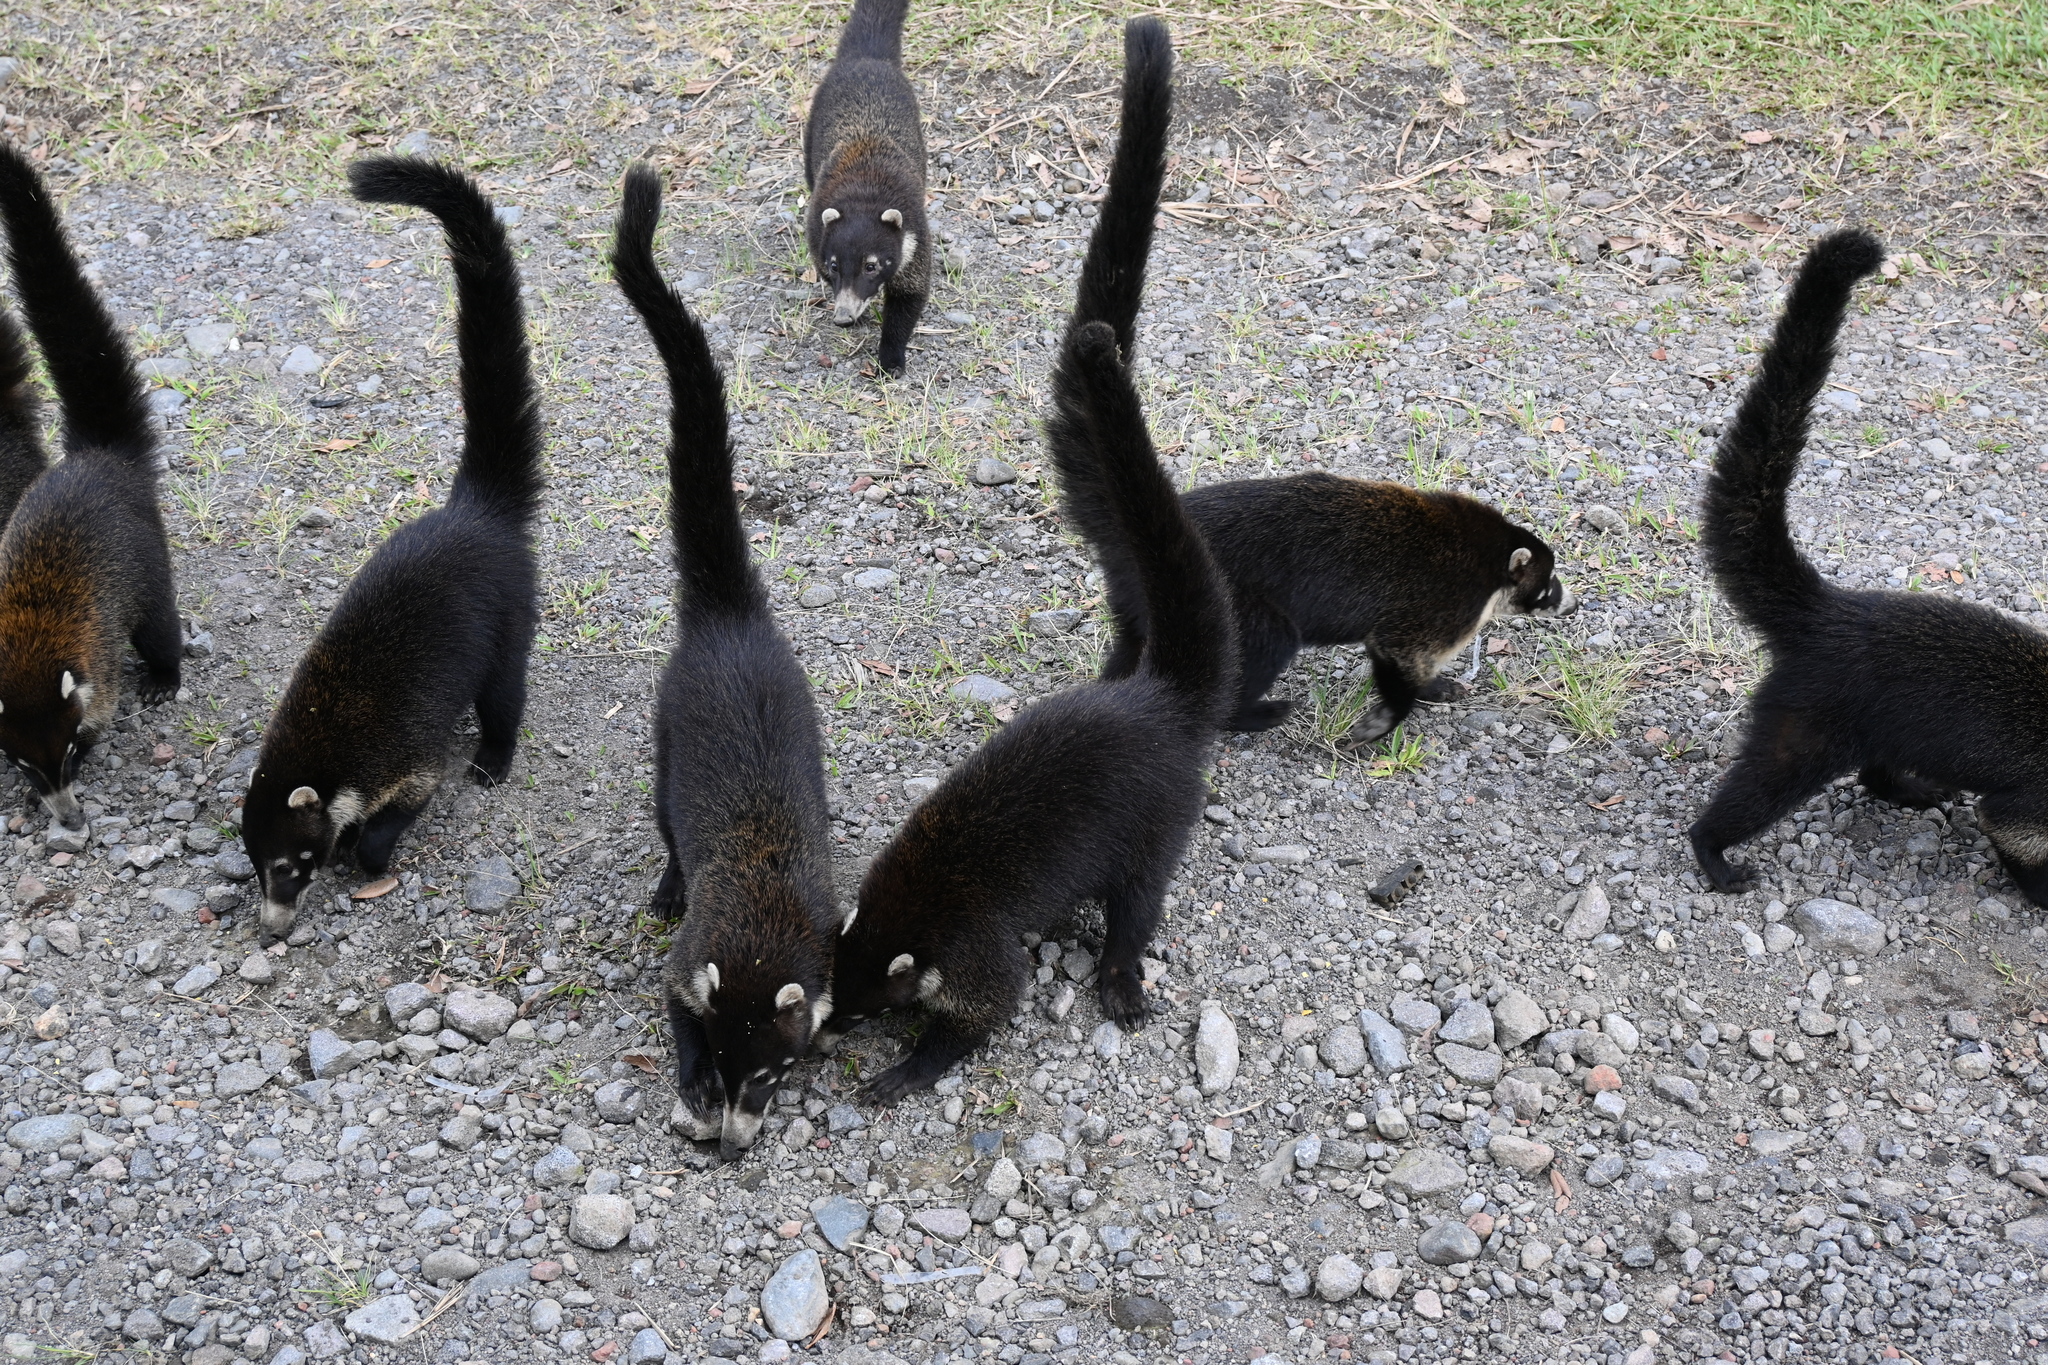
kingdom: Animalia
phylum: Chordata
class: Mammalia
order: Carnivora
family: Procyonidae
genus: Nasua
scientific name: Nasua narica
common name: White-nosed coati
